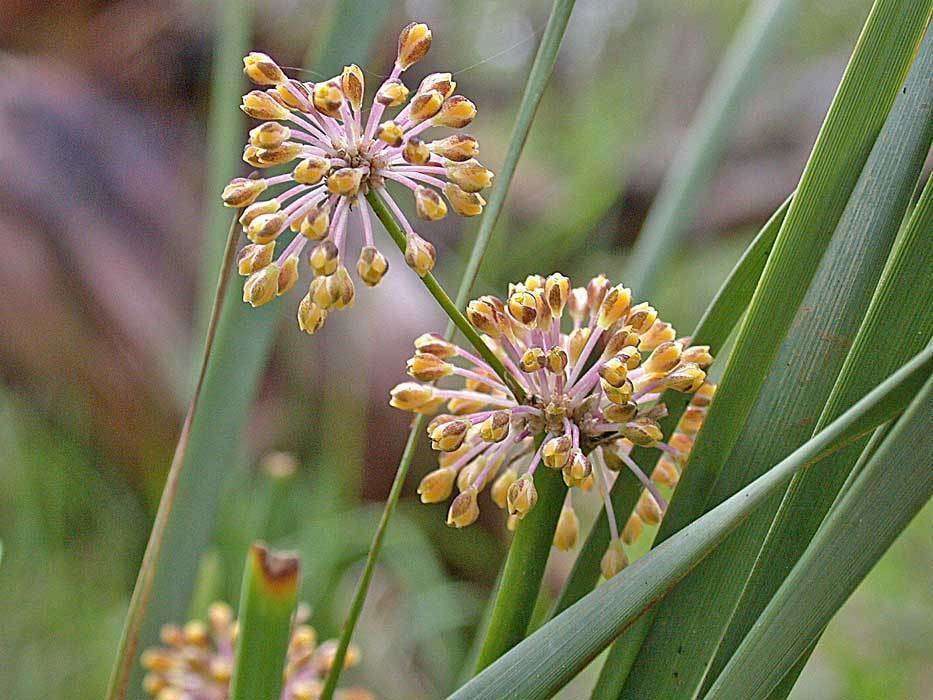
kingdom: Plantae
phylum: Tracheophyta
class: Liliopsida
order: Asparagales
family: Asparagaceae
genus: Lomandra
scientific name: Lomandra multiflora
